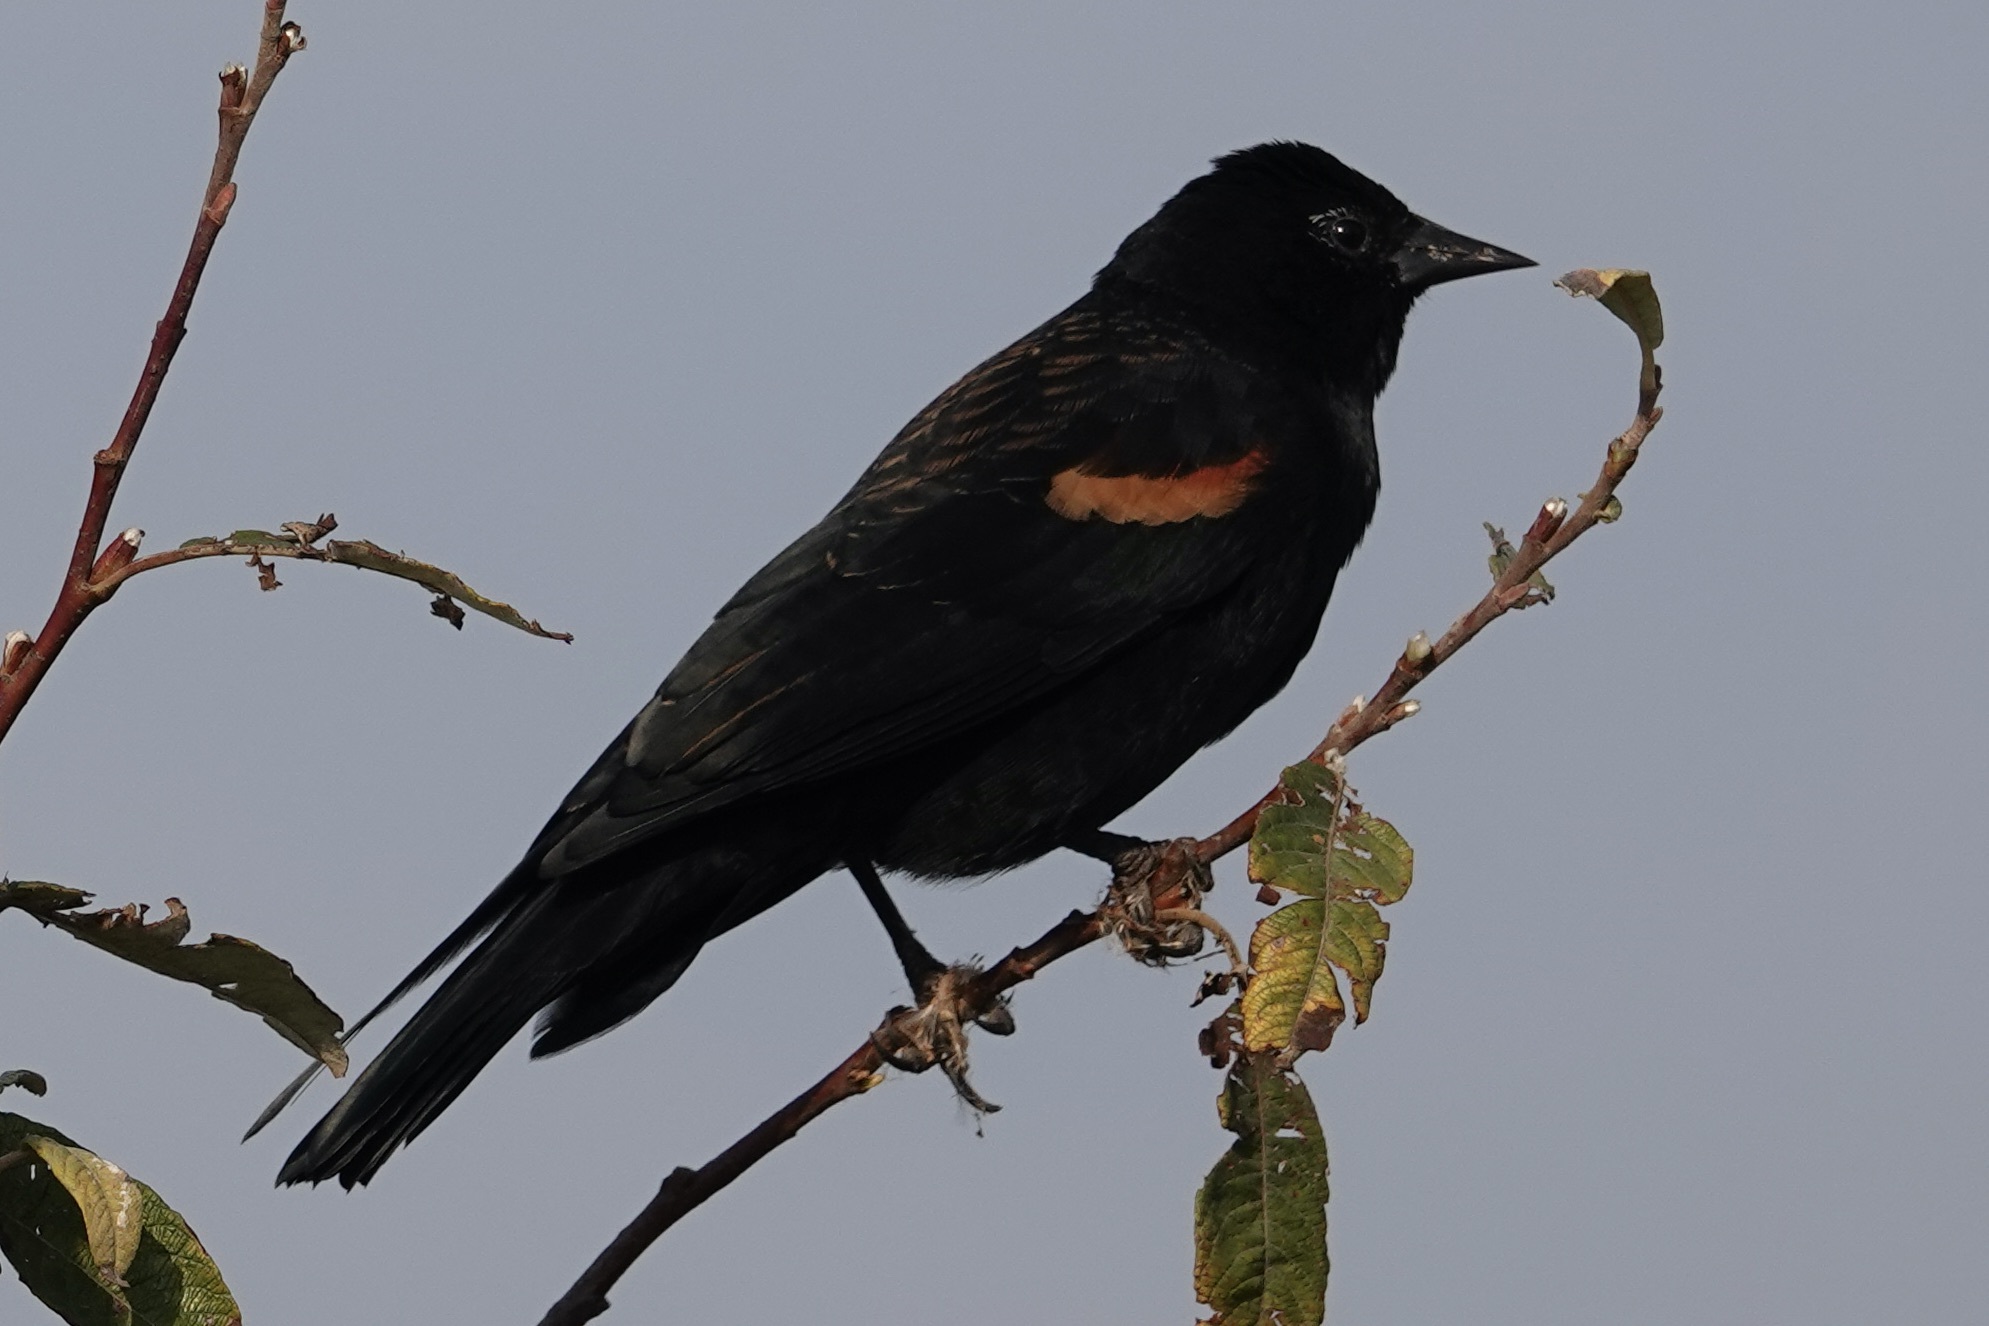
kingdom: Animalia
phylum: Chordata
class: Aves
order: Passeriformes
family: Icteridae
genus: Agelaius
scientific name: Agelaius phoeniceus
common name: Red-winged blackbird
